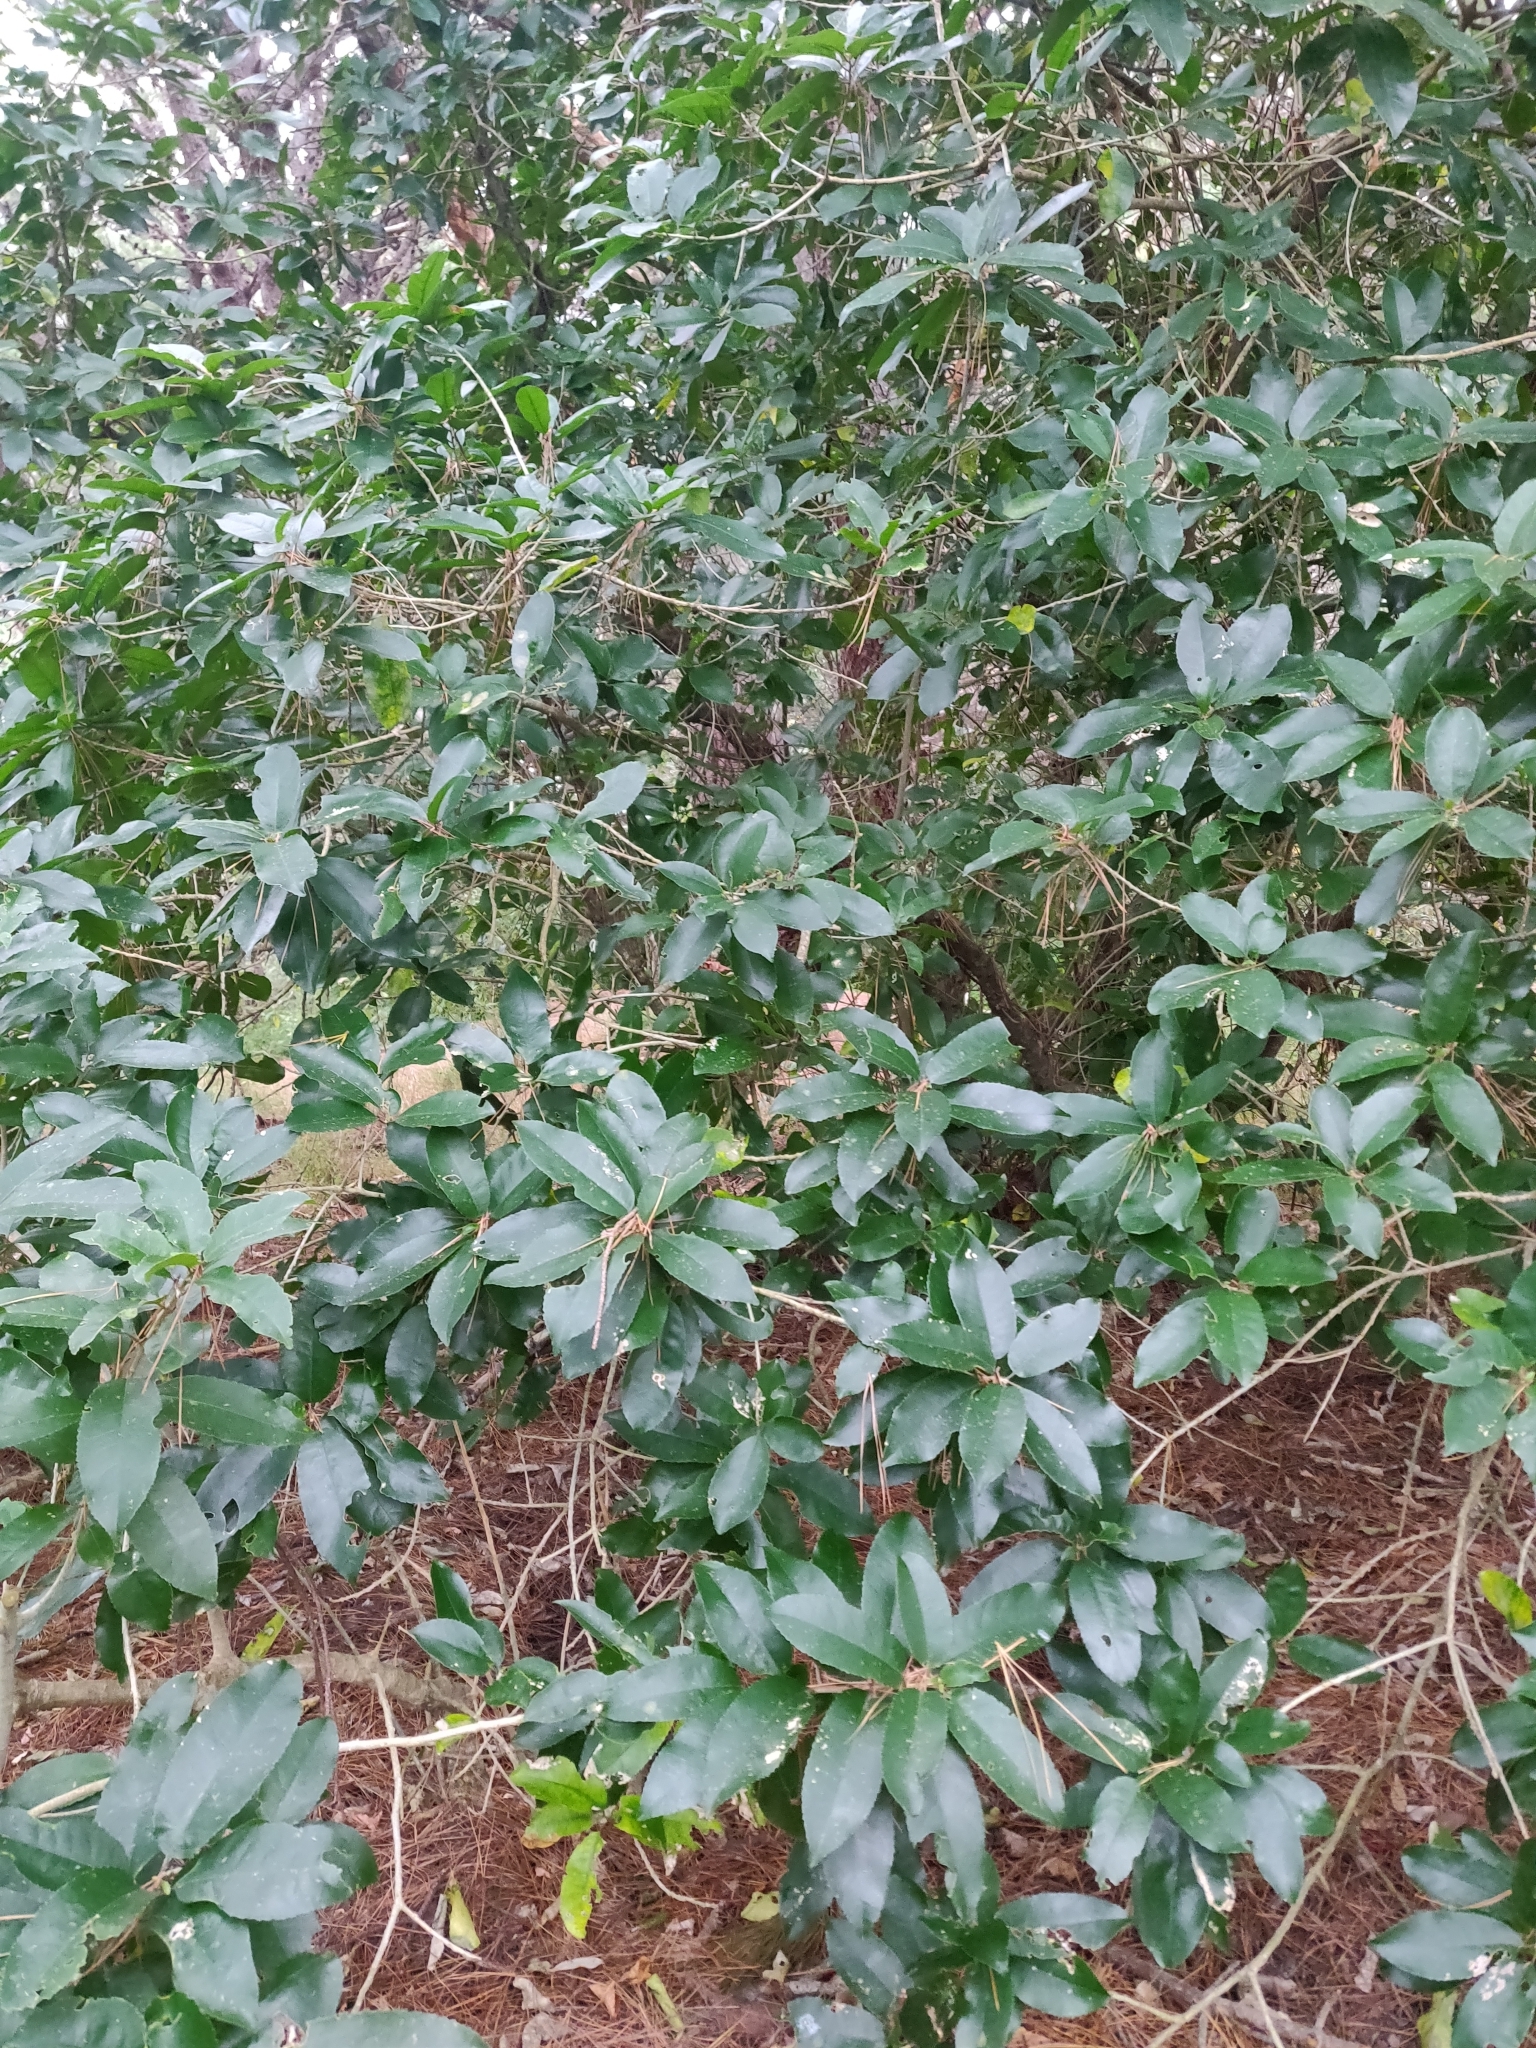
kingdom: Plantae
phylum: Tracheophyta
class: Magnoliopsida
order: Malpighiales
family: Violaceae
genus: Melicytus
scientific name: Melicytus ramiflorus
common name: Mahoe
